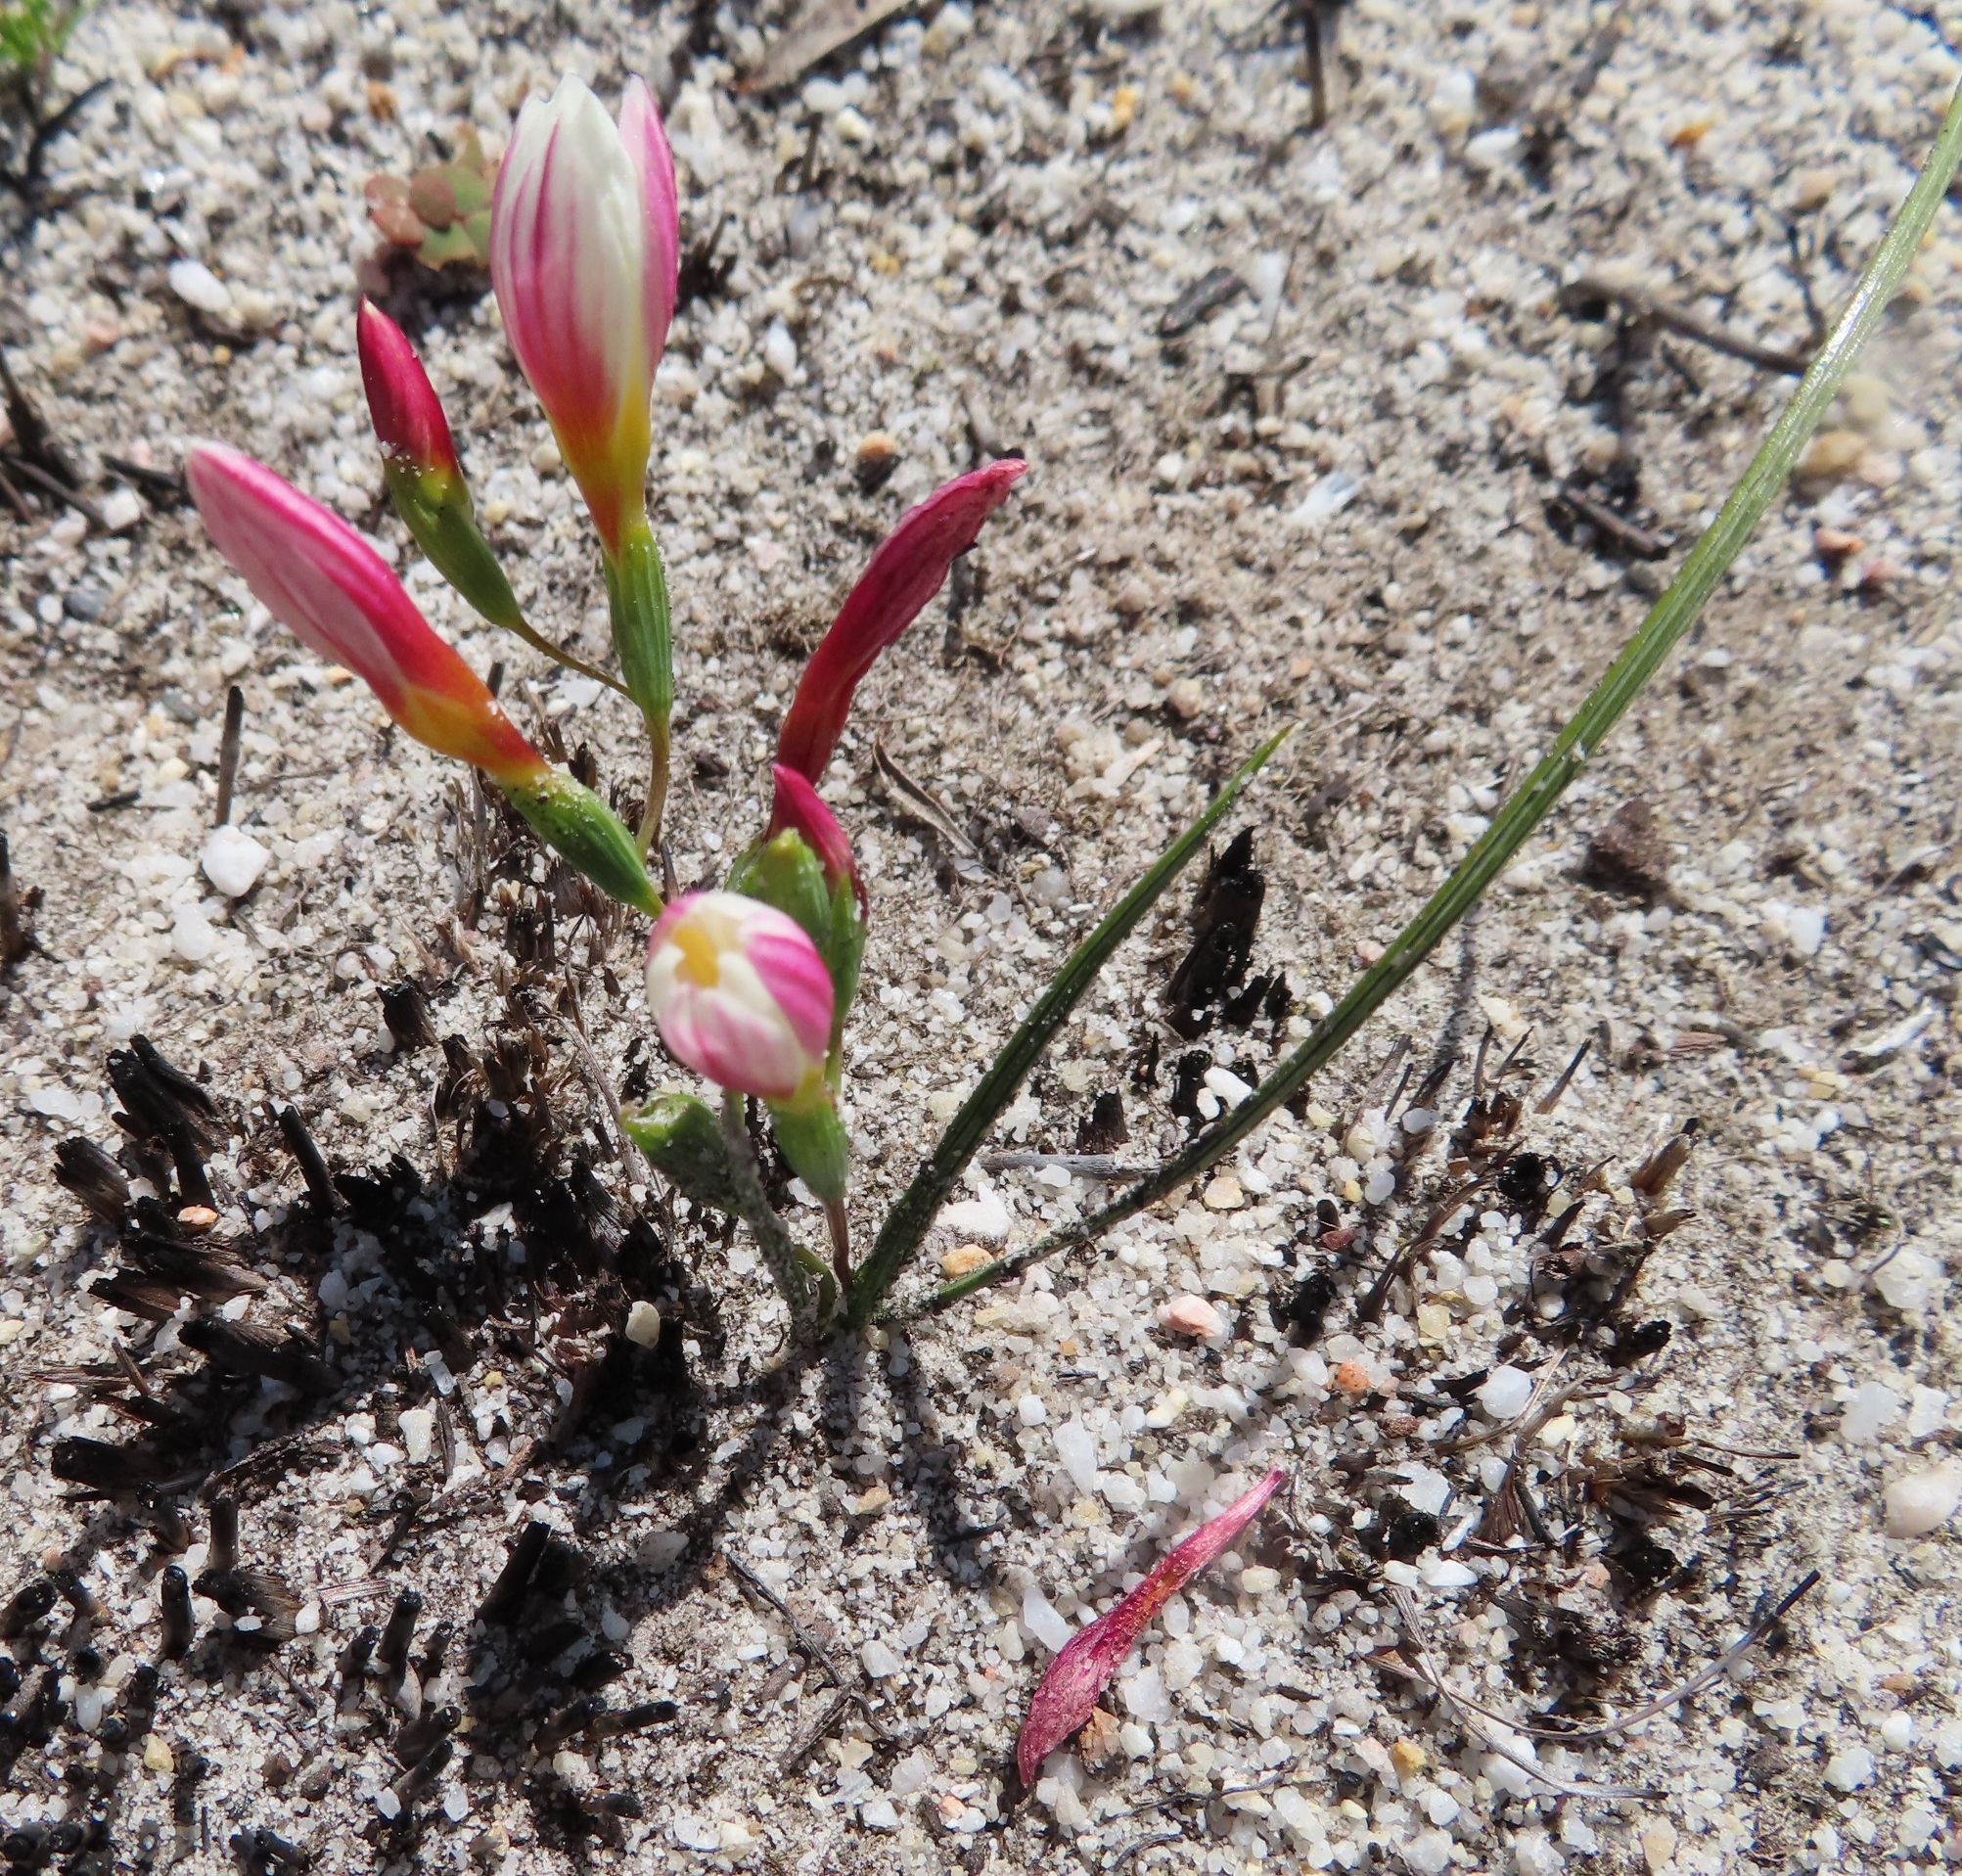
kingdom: Plantae
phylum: Tracheophyta
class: Liliopsida
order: Asparagales
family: Iridaceae
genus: Geissorhiza
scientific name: Geissorhiza hispidula
